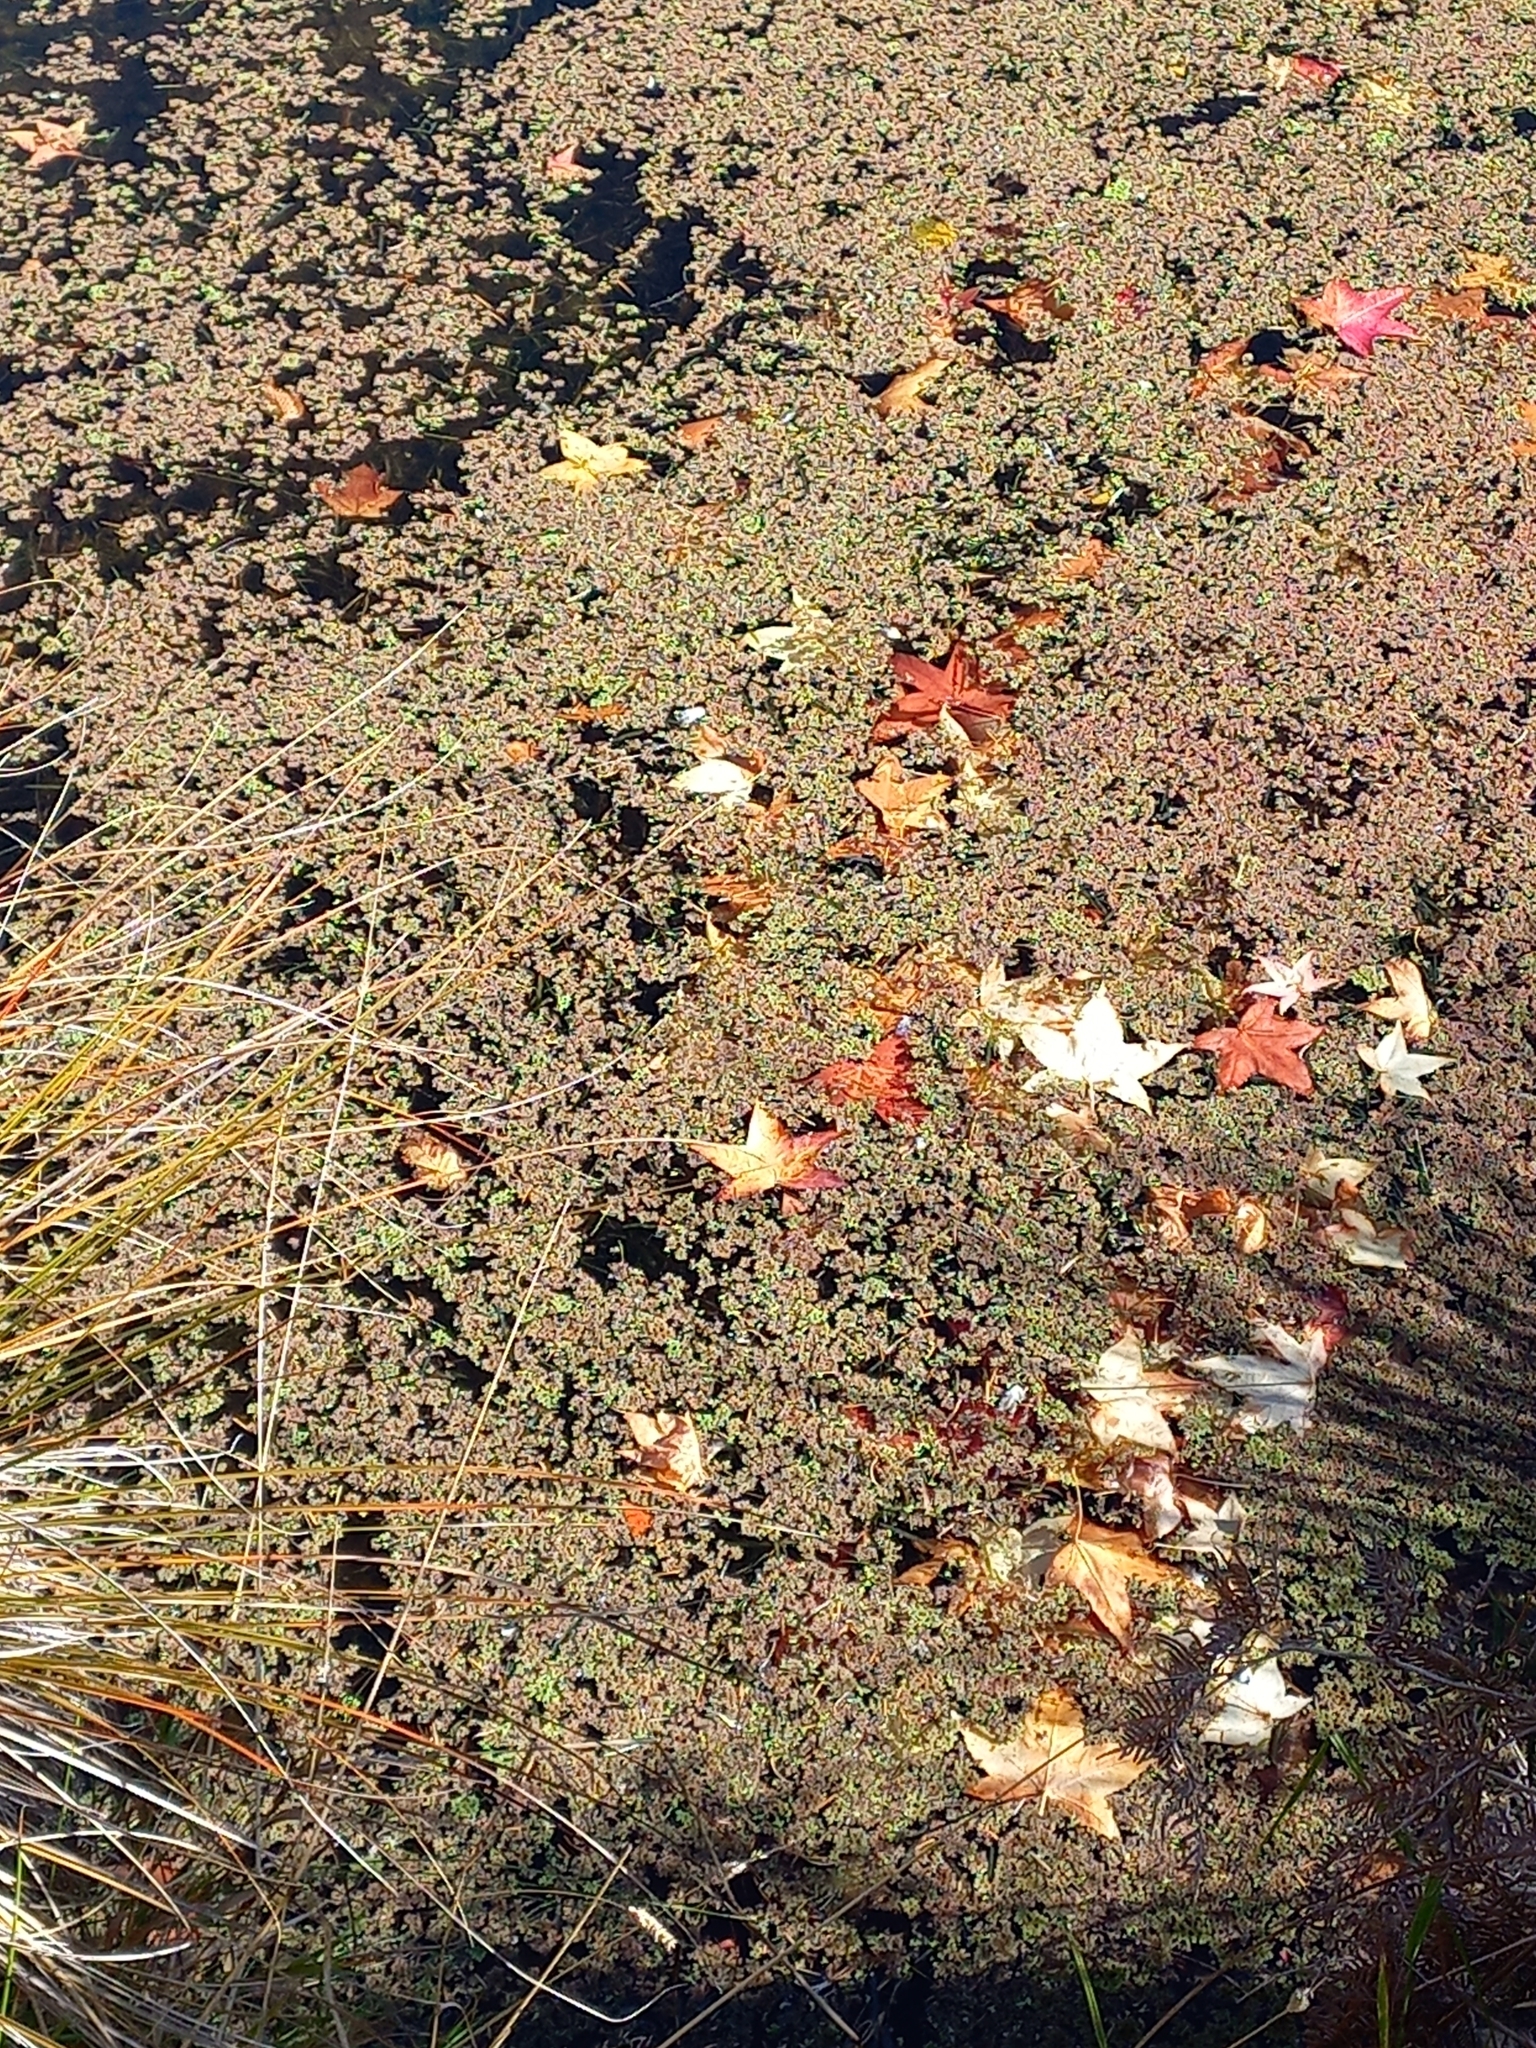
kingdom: Plantae
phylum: Tracheophyta
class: Polypodiopsida
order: Salviniales
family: Salviniaceae
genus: Azolla
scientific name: Azolla rubra
